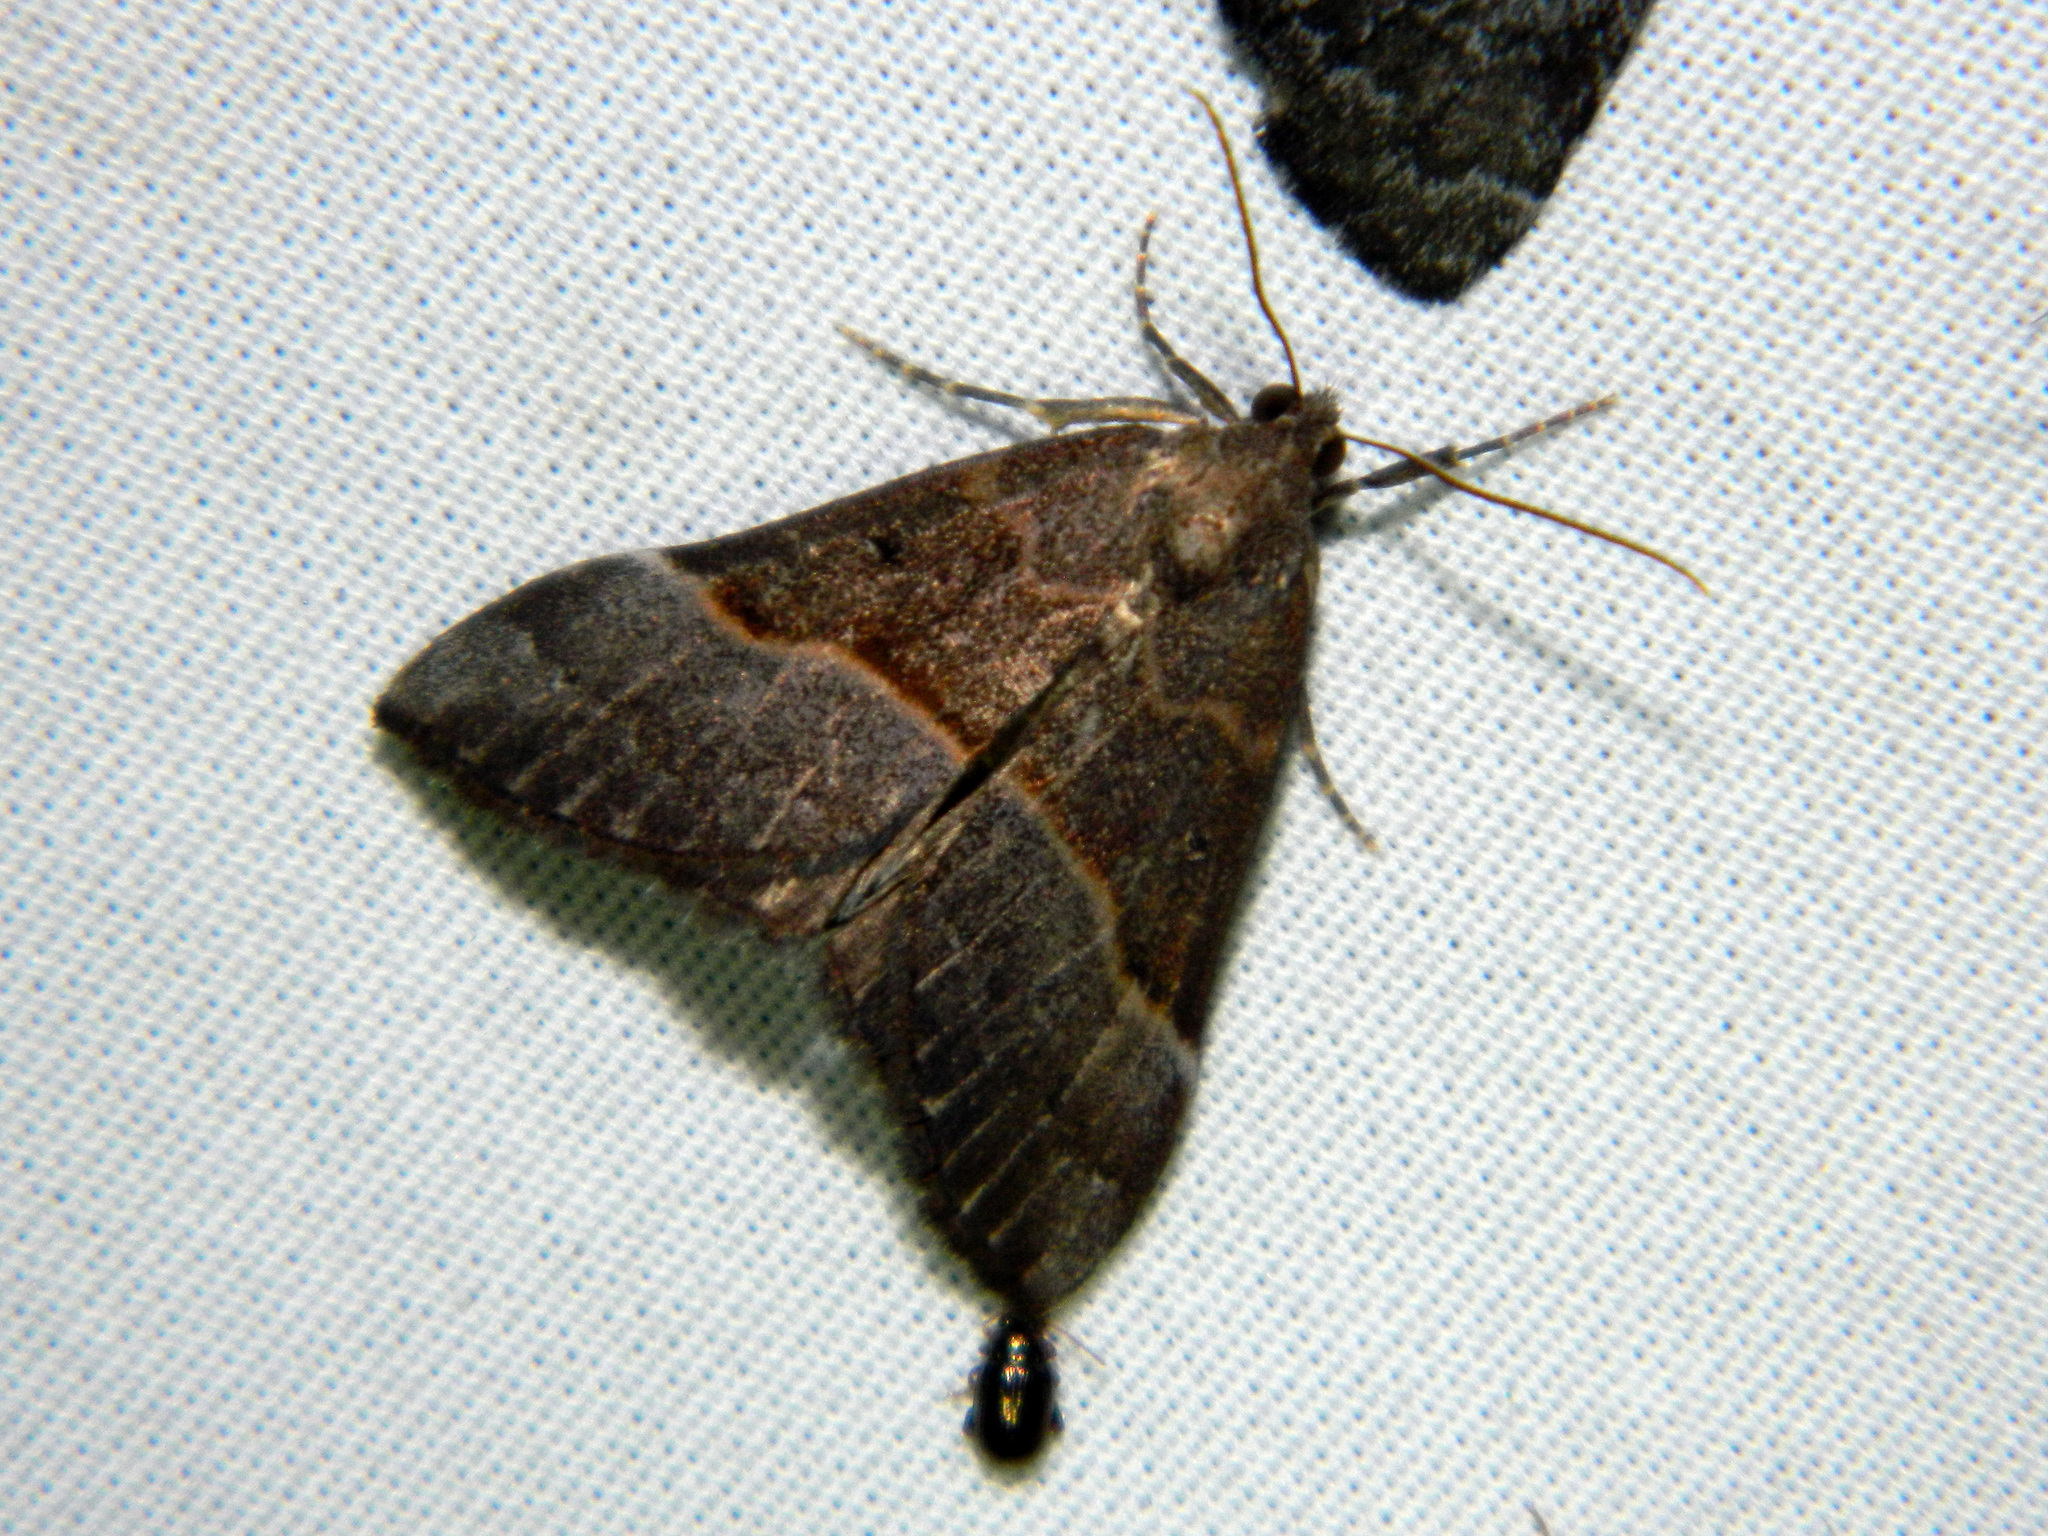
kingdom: Animalia
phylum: Arthropoda
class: Insecta
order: Lepidoptera
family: Erebidae
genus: Hypena
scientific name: Hypena eductalis
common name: Red-footed snout
